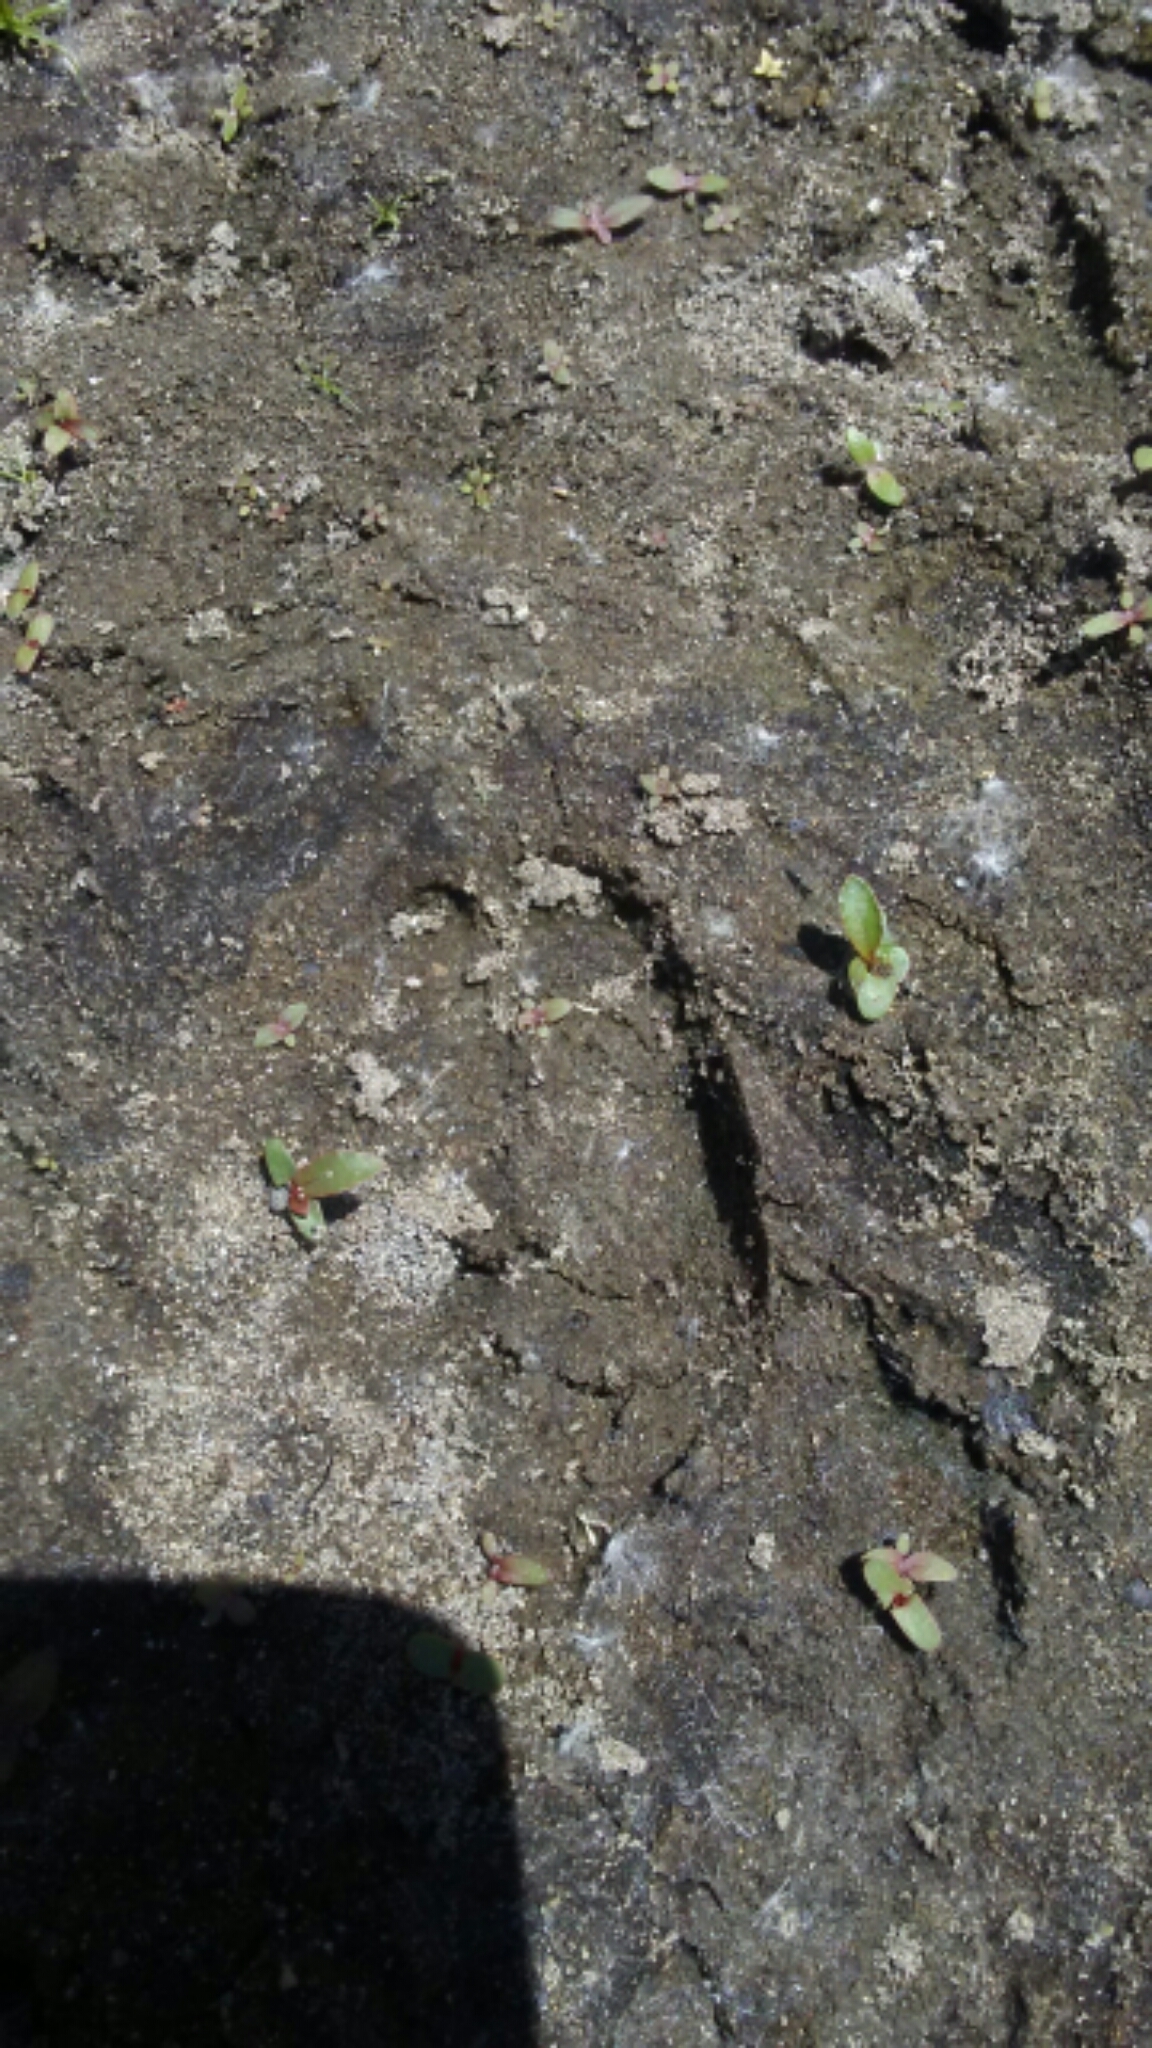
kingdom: Animalia
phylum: Chordata
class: Mammalia
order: Artiodactyla
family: Cervidae
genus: Odocoileus
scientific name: Odocoileus hemionus
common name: Mule deer
